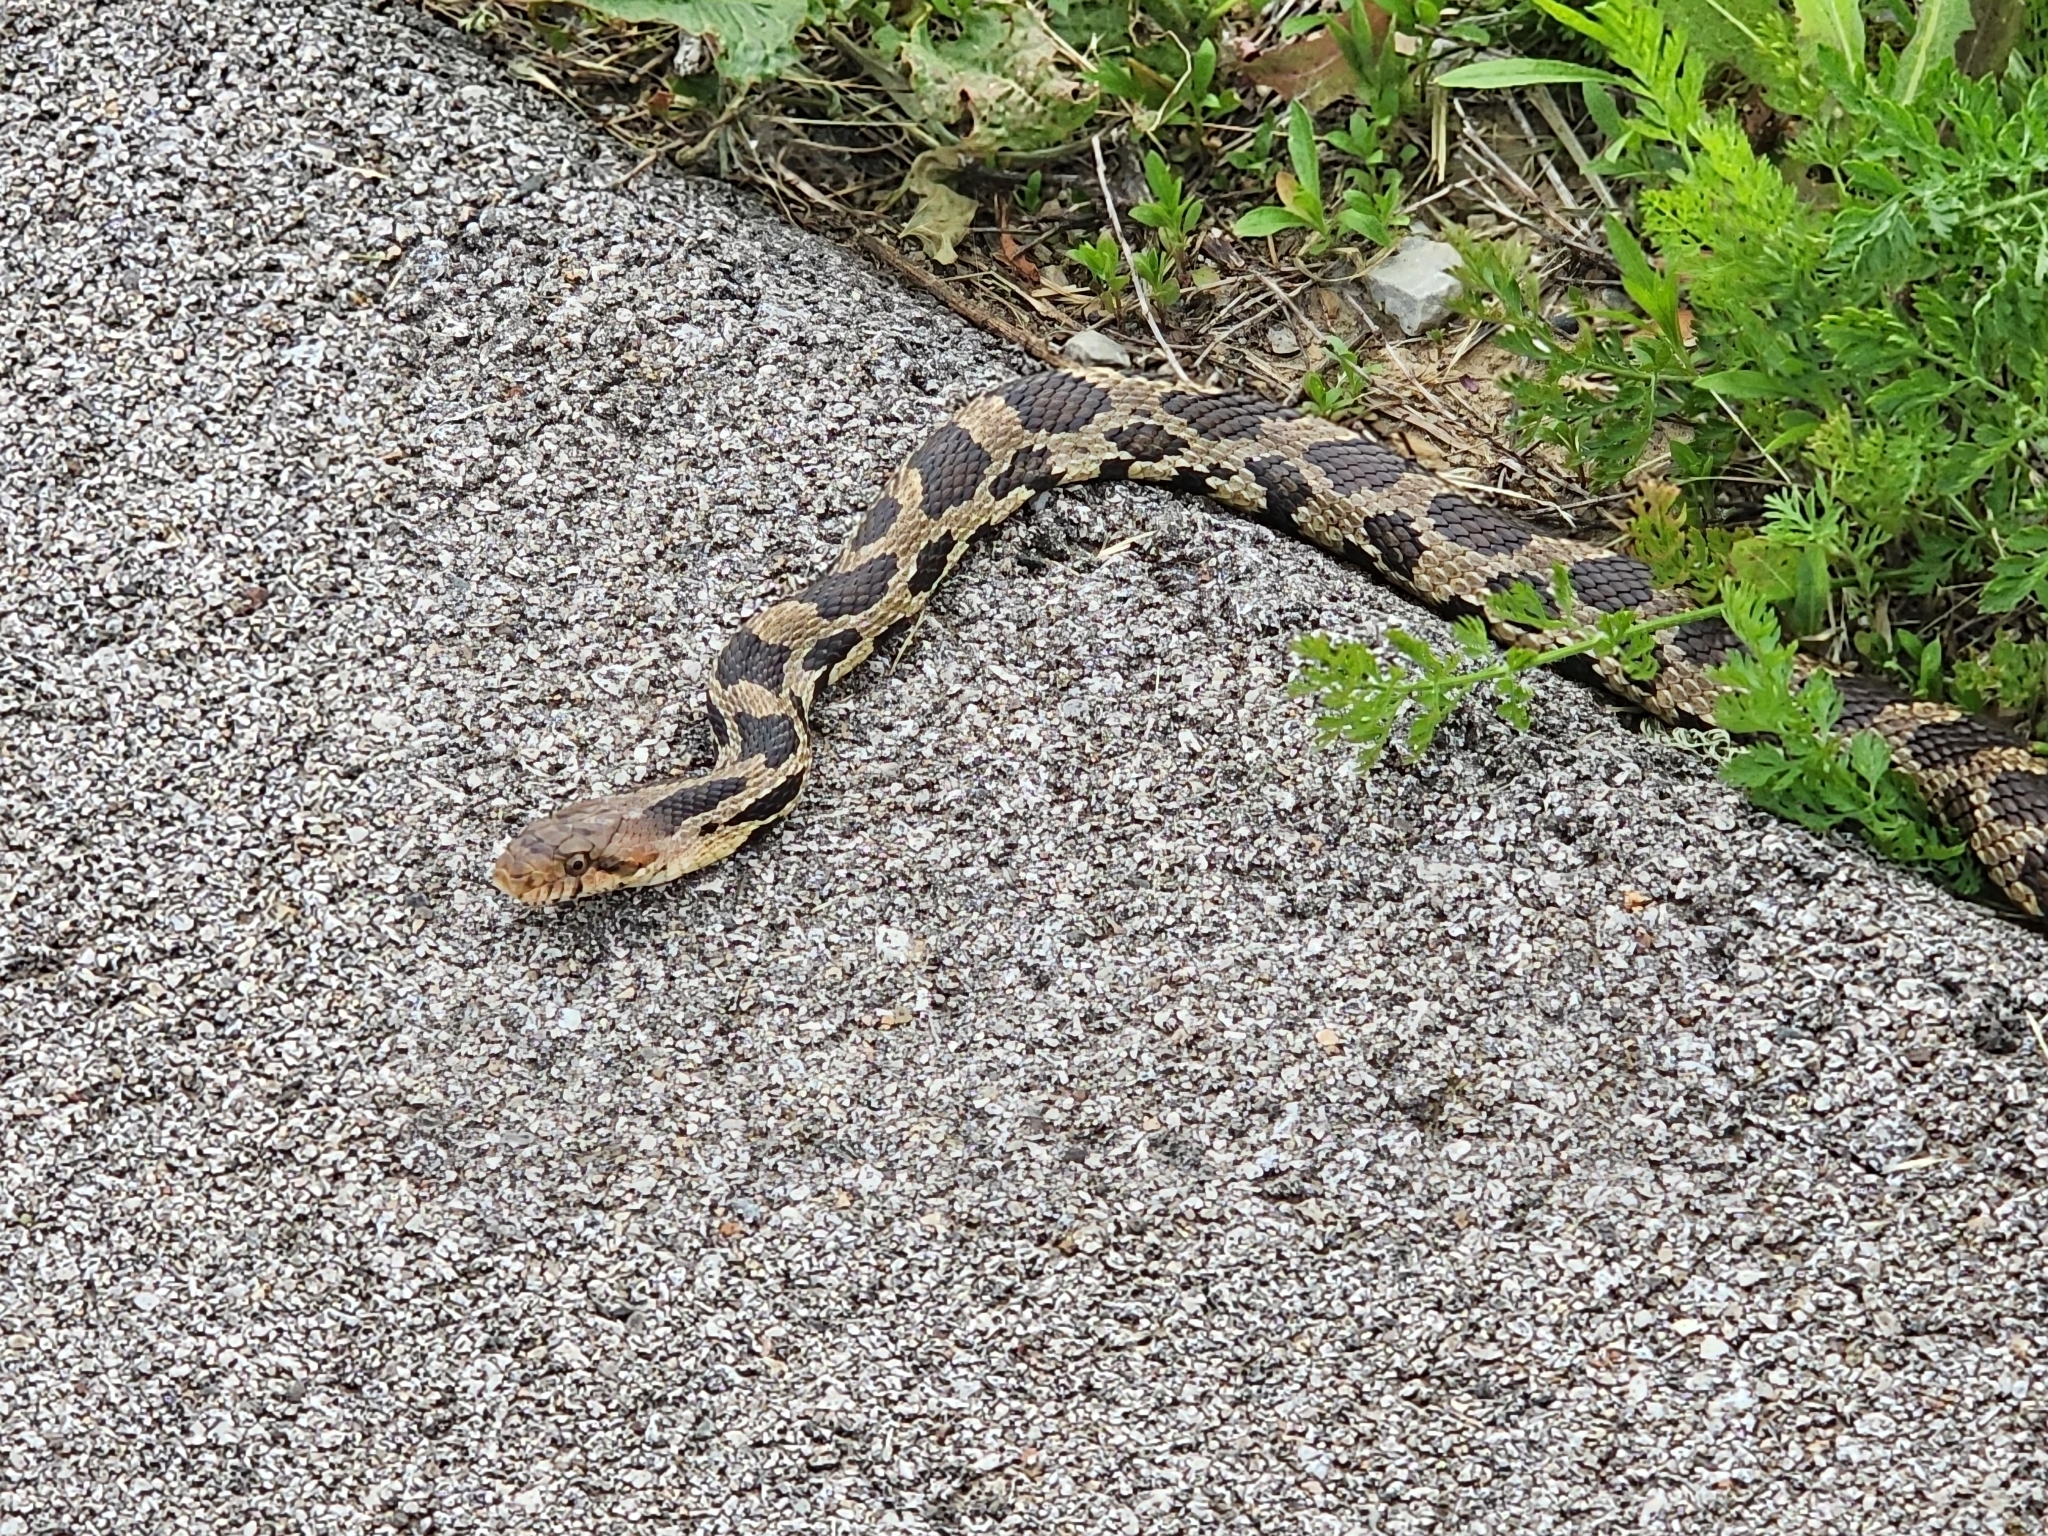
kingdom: Animalia
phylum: Chordata
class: Squamata
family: Colubridae
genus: Pantherophis
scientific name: Pantherophis vulpinus
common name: Eastern fox snake
